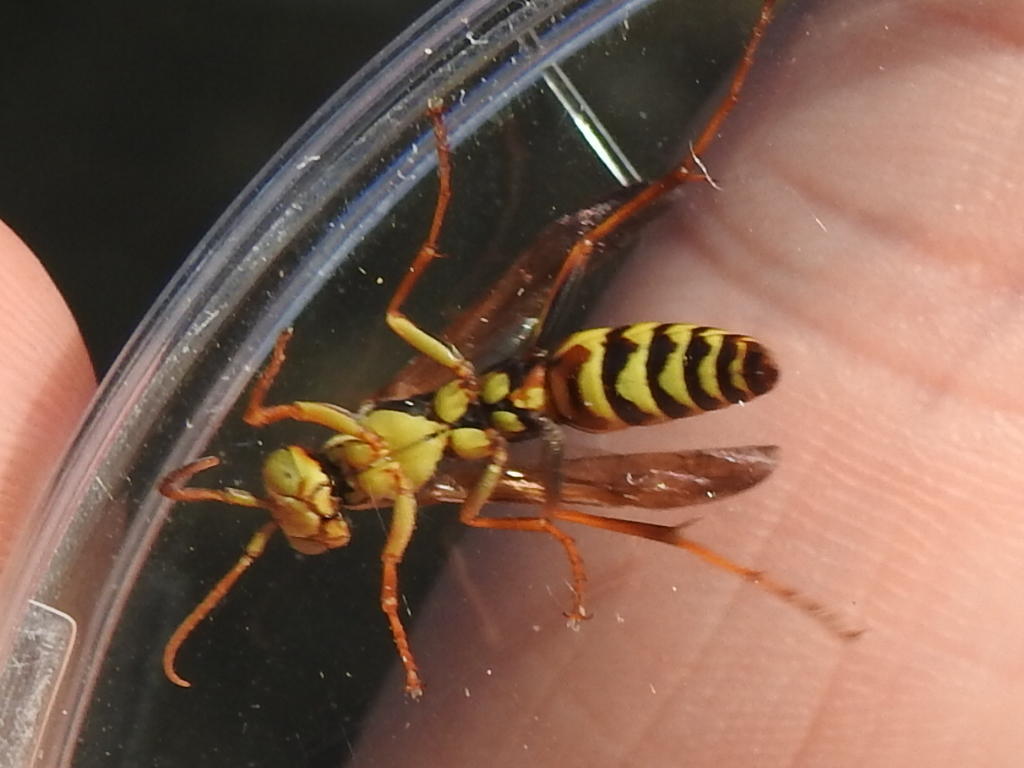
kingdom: Animalia
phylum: Arthropoda
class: Insecta
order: Hymenoptera
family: Eumenidae
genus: Polistes
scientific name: Polistes exclamans
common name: Paper wasp
